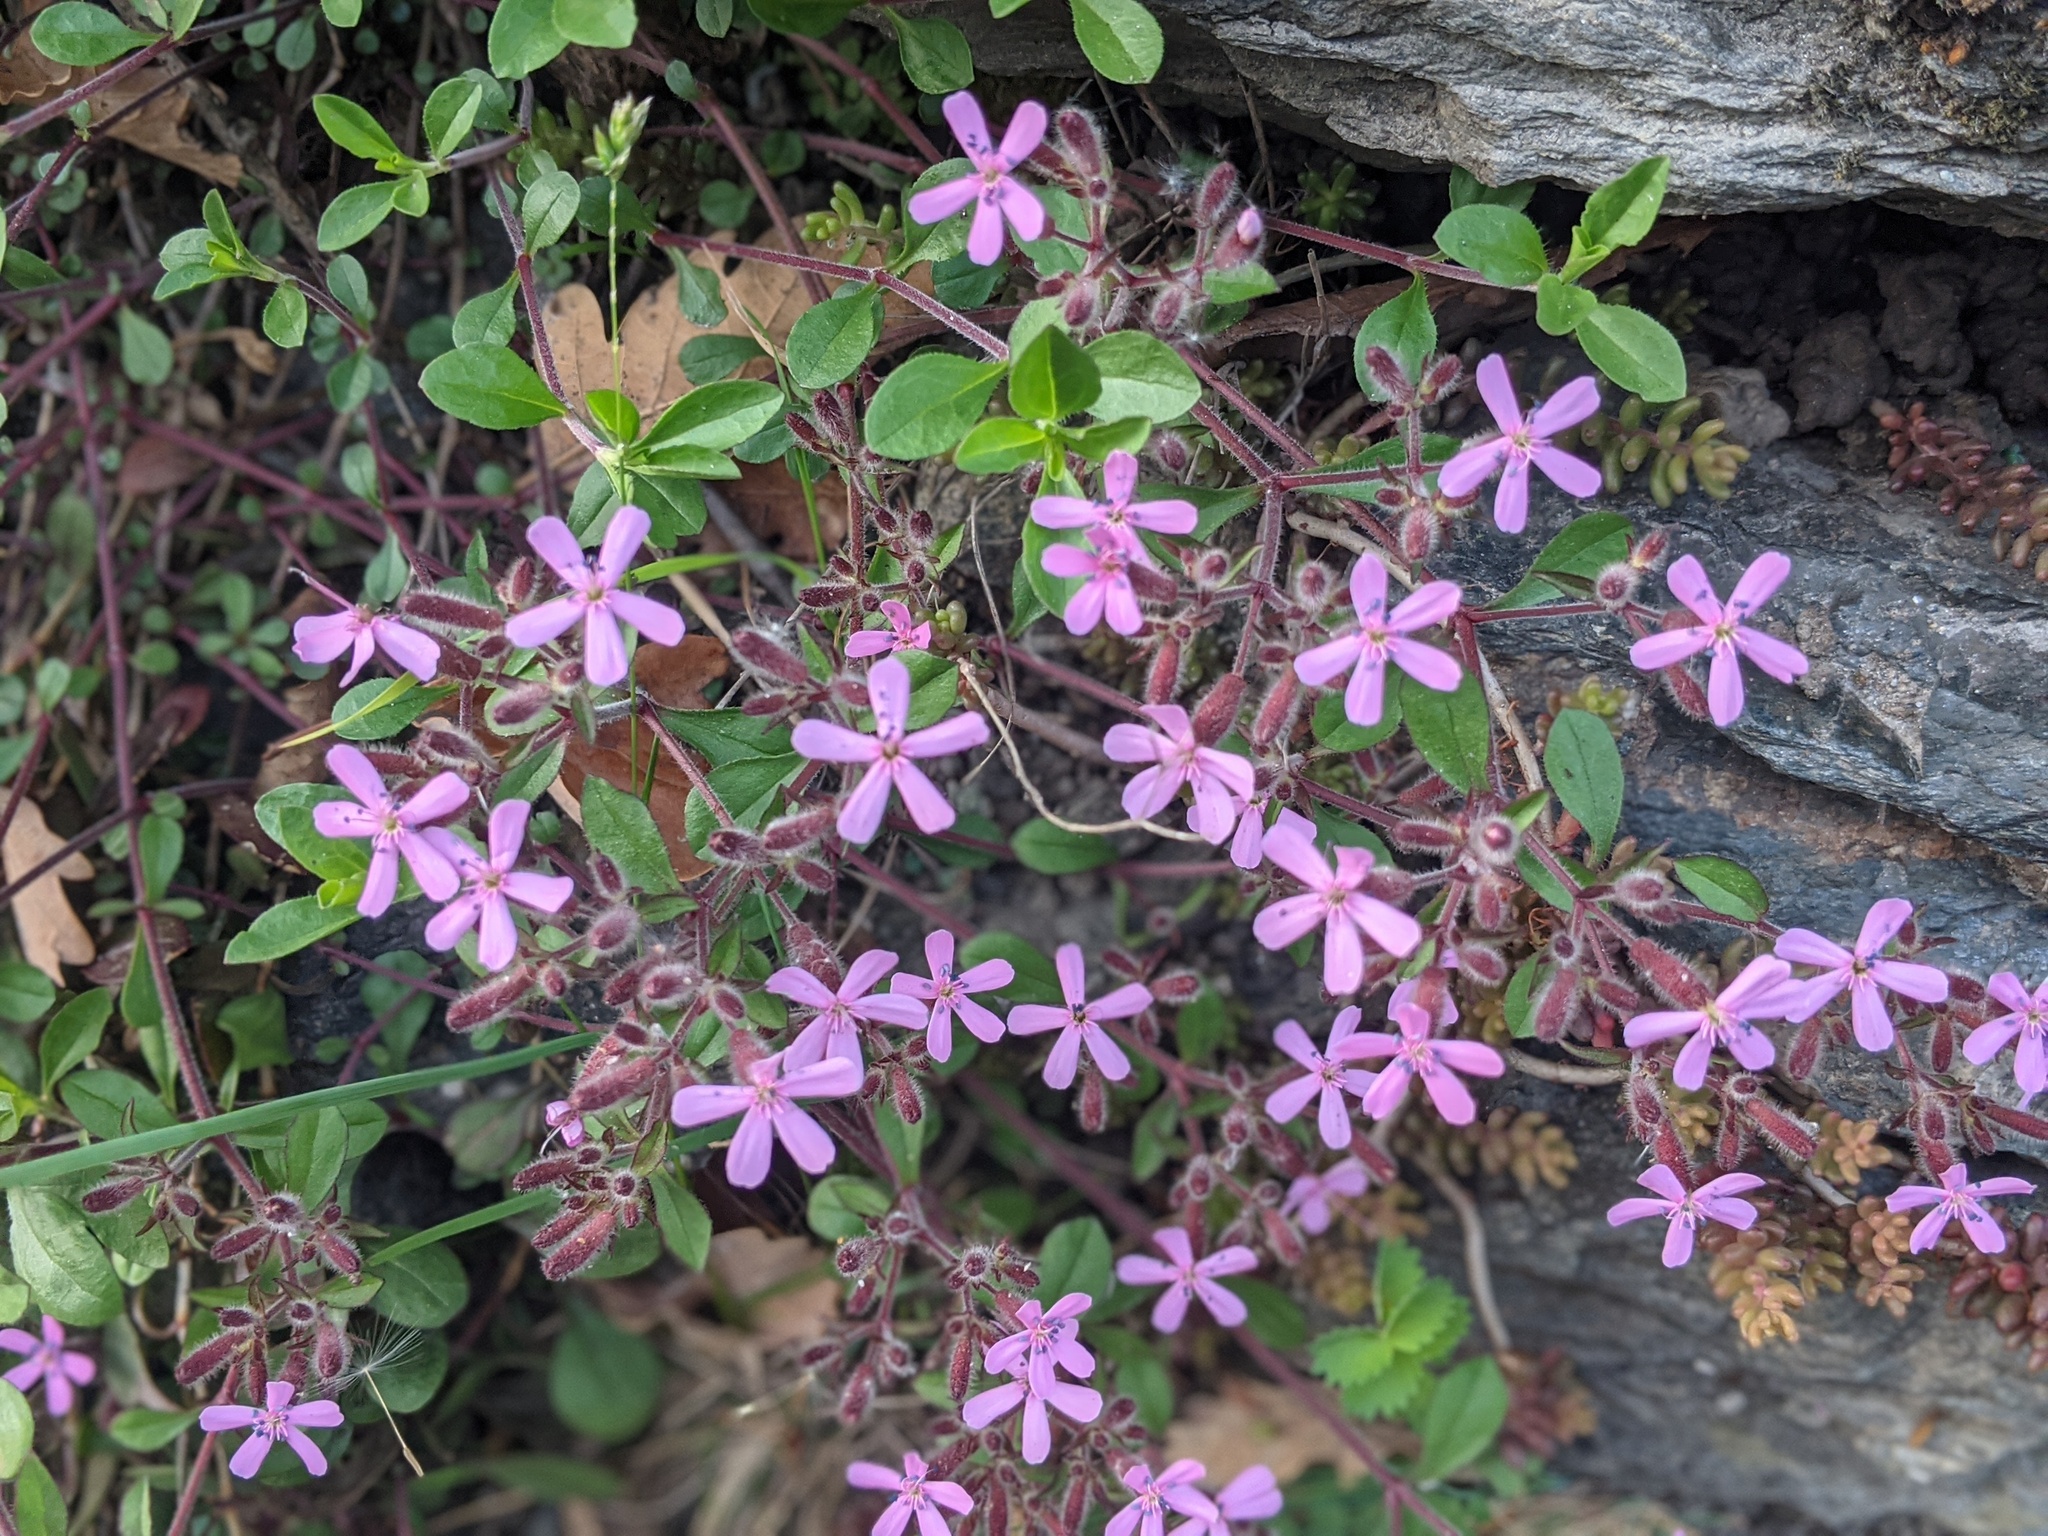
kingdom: Plantae
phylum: Tracheophyta
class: Magnoliopsida
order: Caryophyllales
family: Caryophyllaceae
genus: Saponaria
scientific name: Saponaria ocymoides
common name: Rock soapwort
